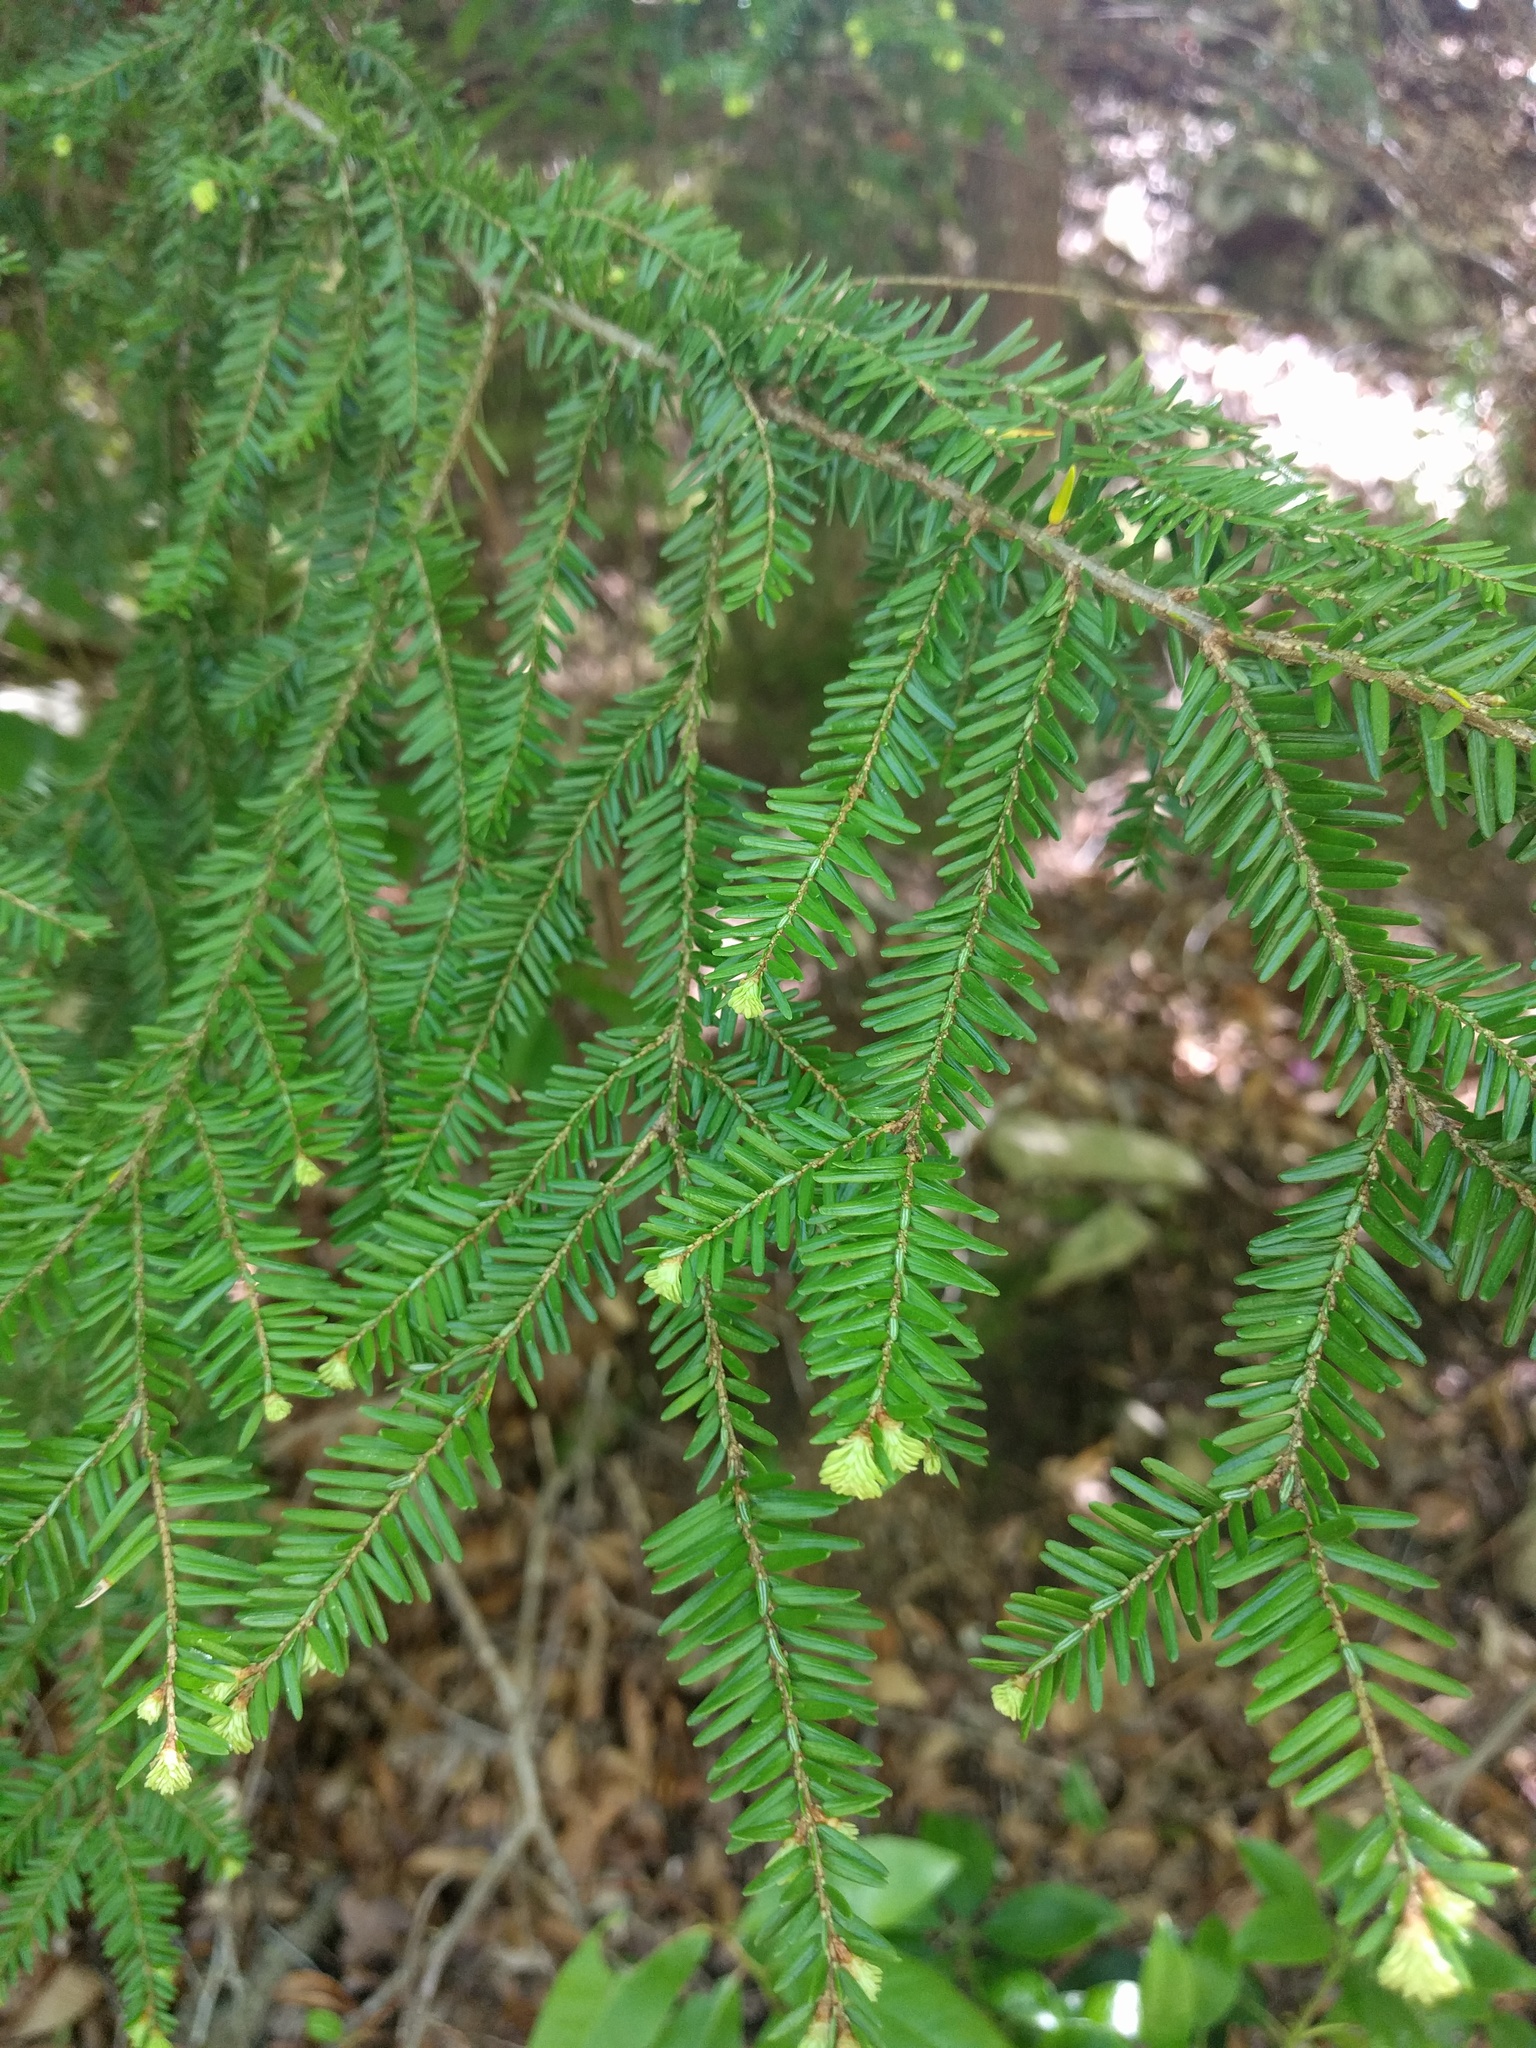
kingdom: Plantae
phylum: Tracheophyta
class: Pinopsida
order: Pinales
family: Pinaceae
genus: Tsuga
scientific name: Tsuga canadensis
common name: Eastern hemlock
